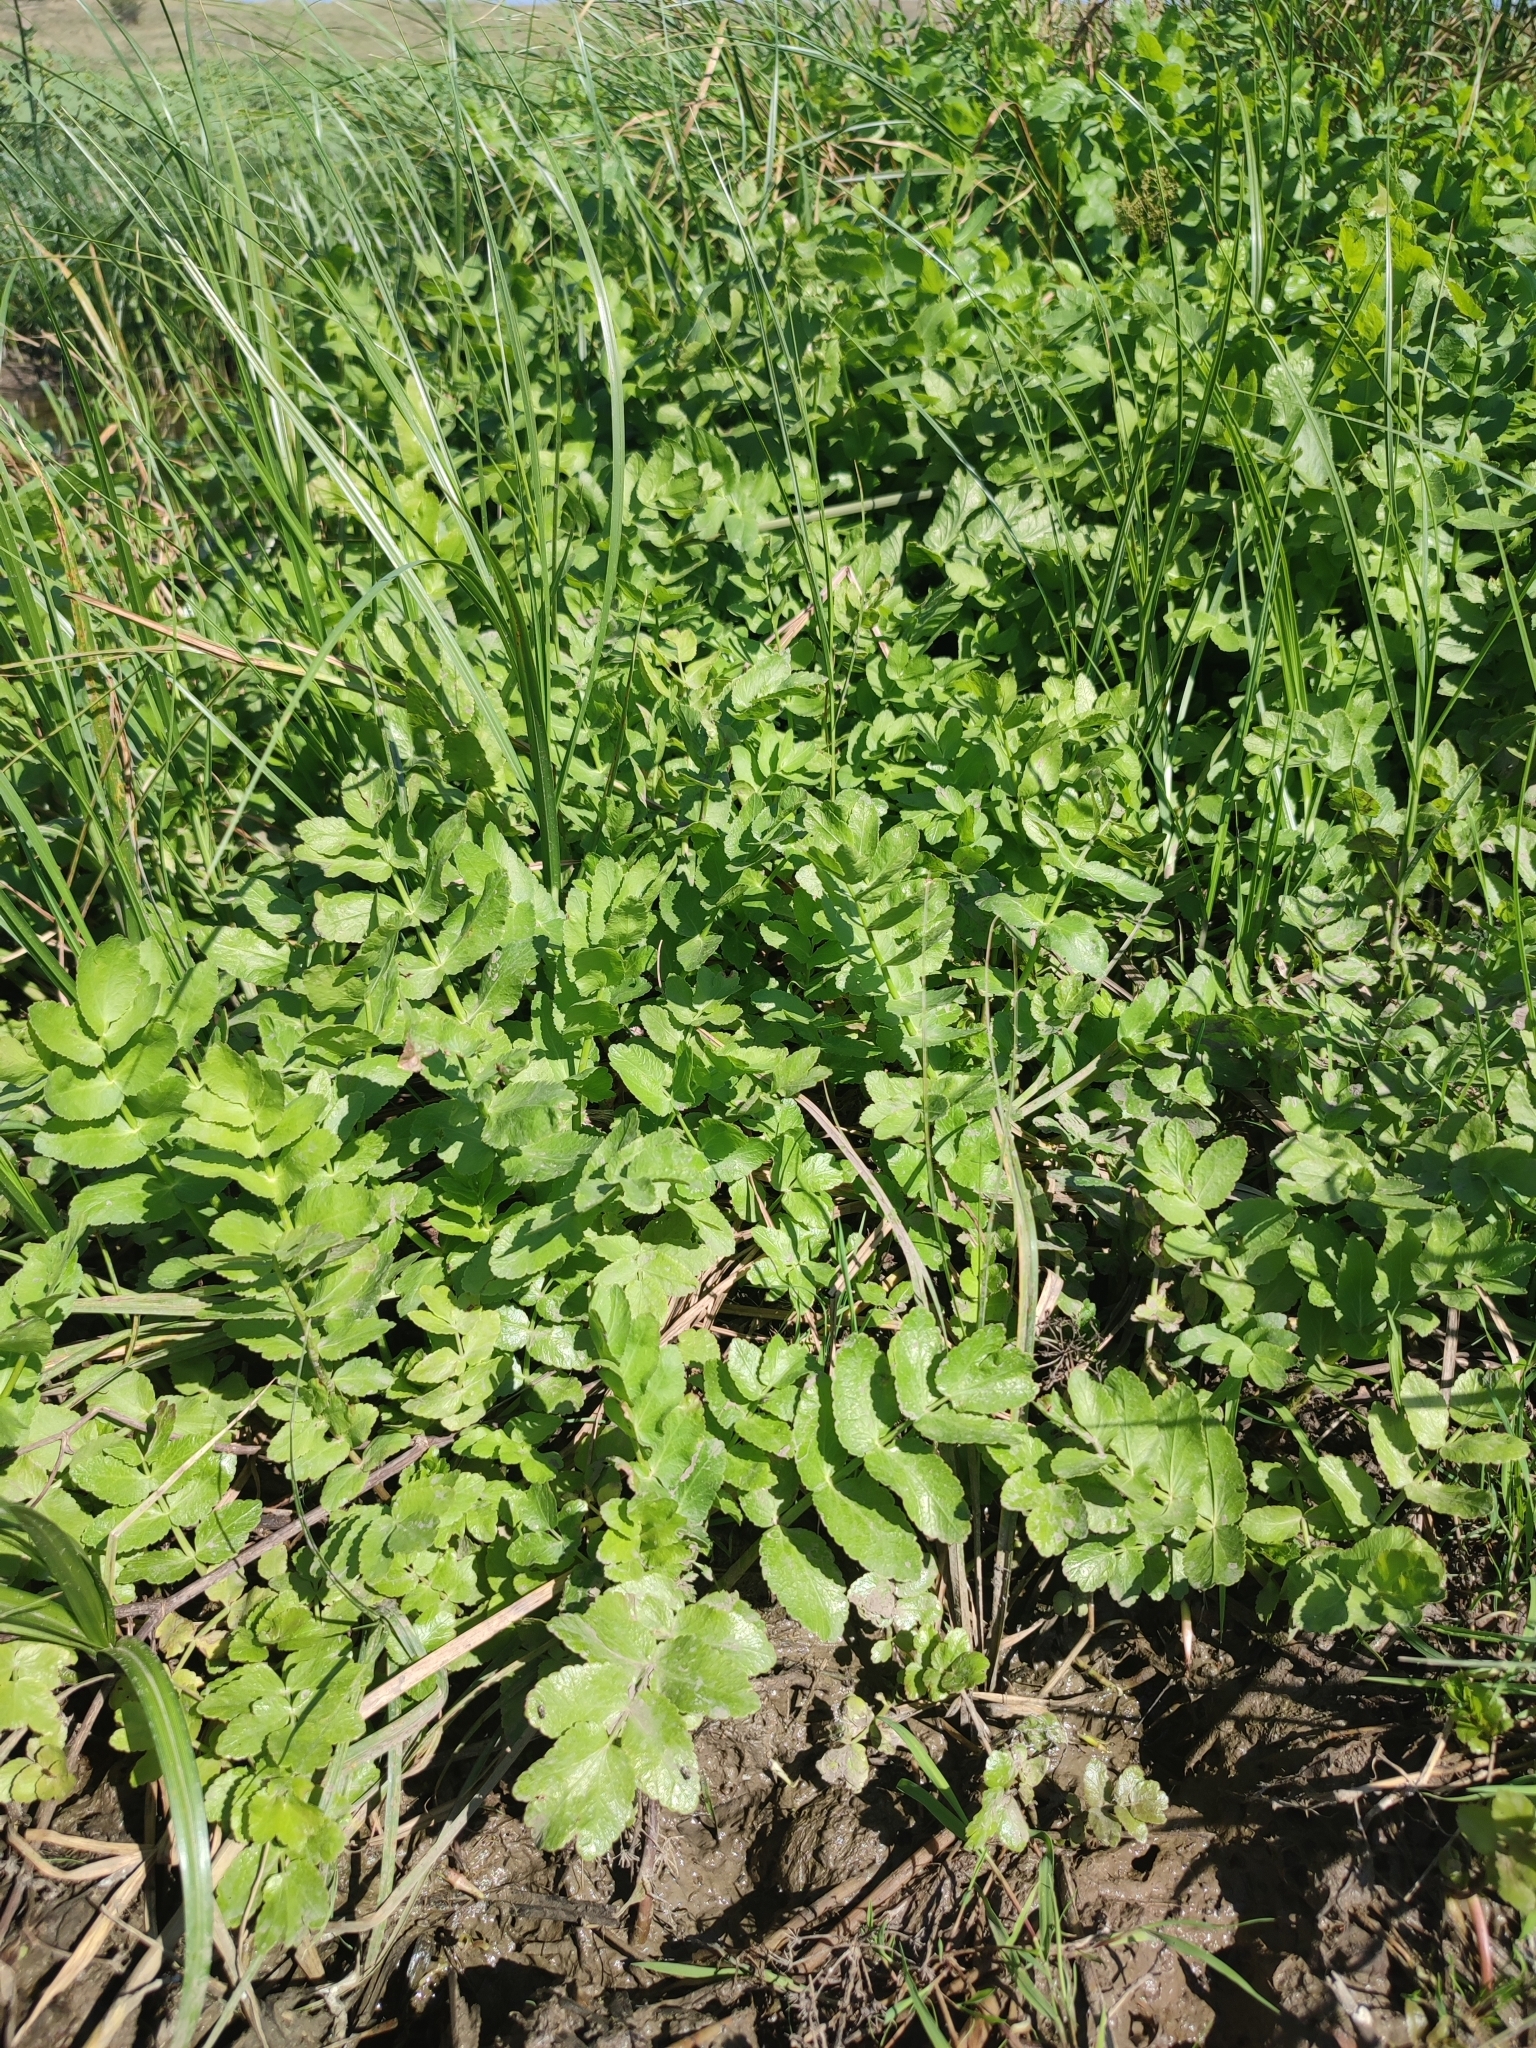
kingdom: Plantae
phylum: Tracheophyta
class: Magnoliopsida
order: Apiales
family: Apiaceae
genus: Berula
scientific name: Berula erecta
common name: Lesser water-parsnip
